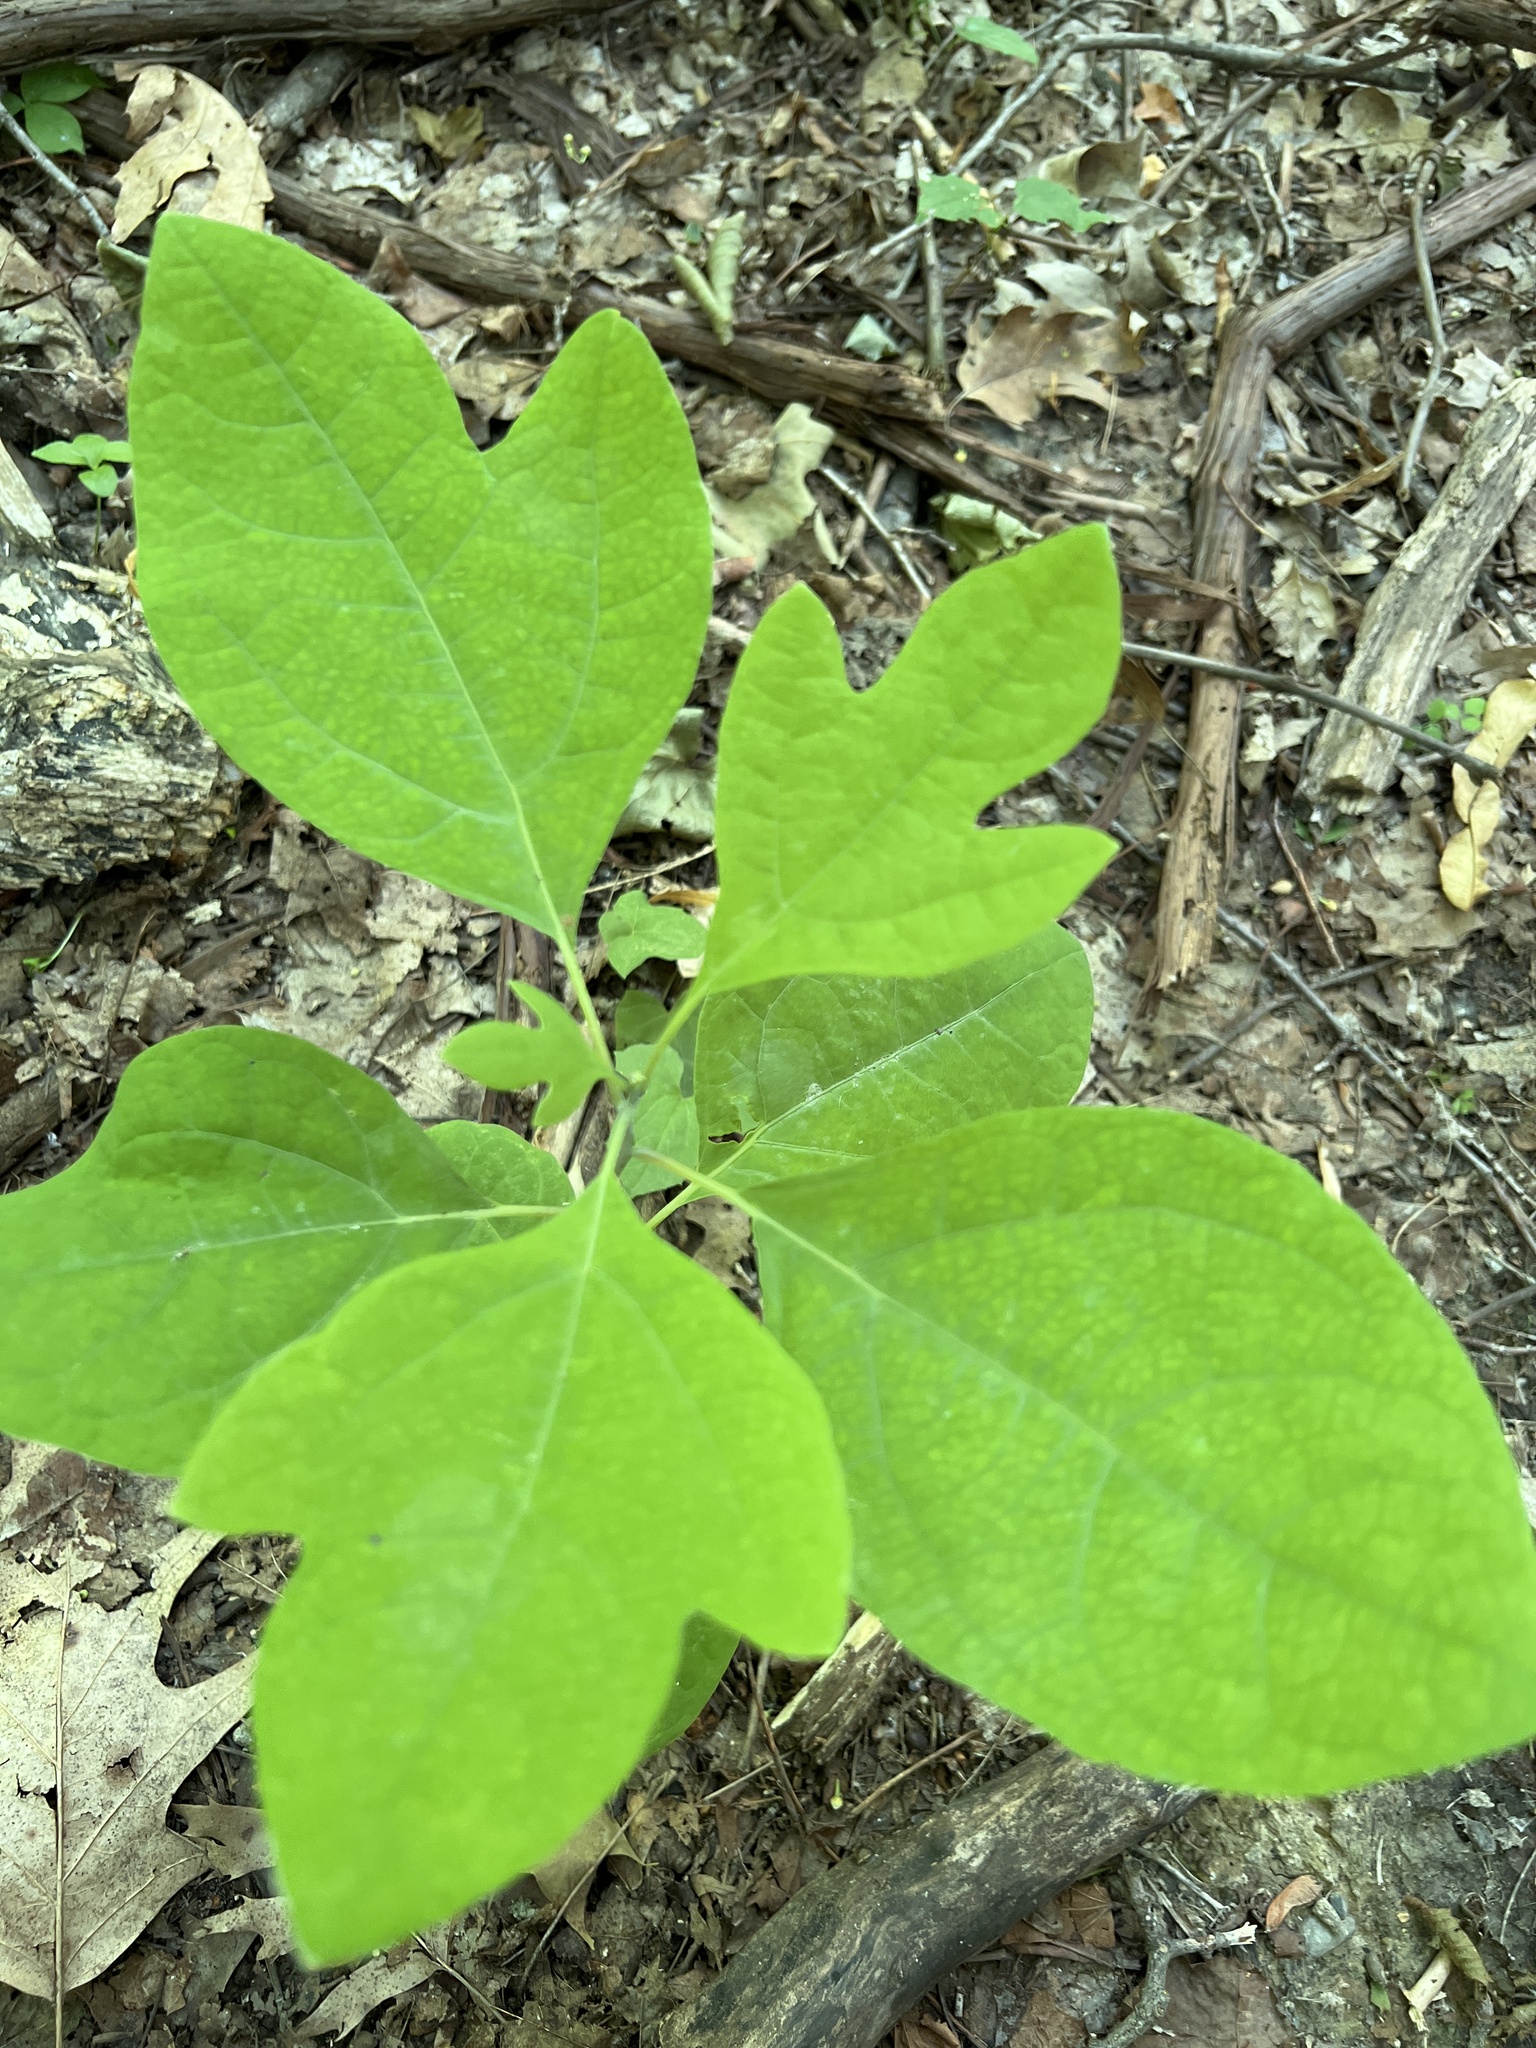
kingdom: Plantae
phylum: Tracheophyta
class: Magnoliopsida
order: Laurales
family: Lauraceae
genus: Sassafras
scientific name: Sassafras albidum
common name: Sassafras
